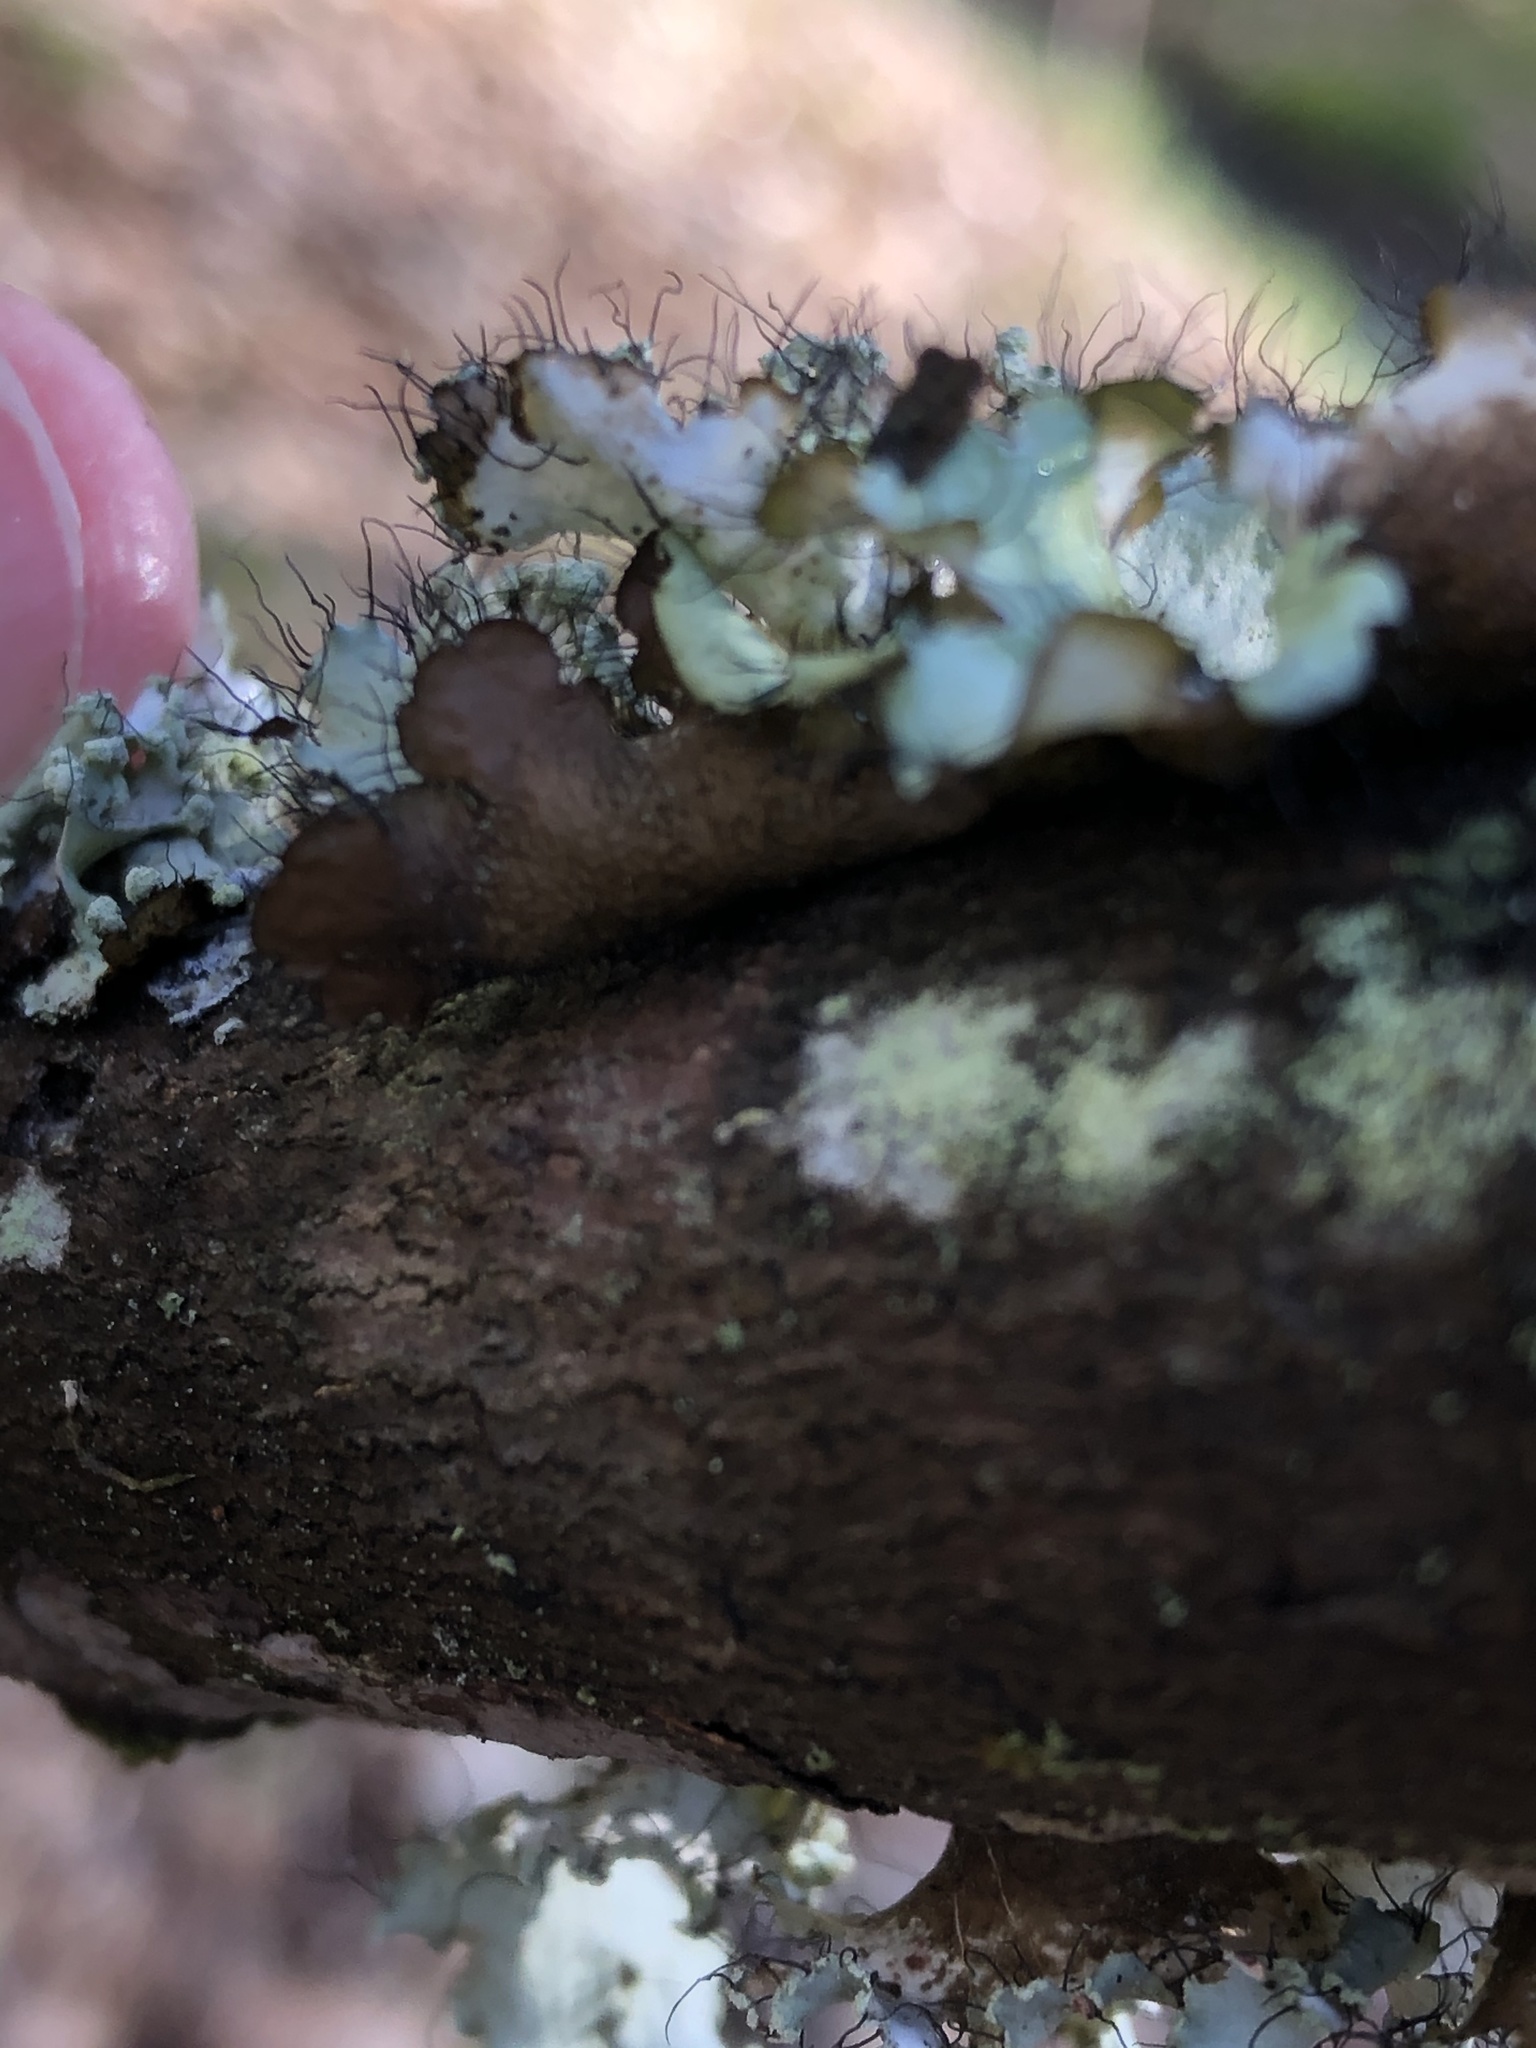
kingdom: Fungi
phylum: Ascomycota
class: Lecanoromycetes
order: Lecanorales
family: Parmeliaceae
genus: Parmotrema
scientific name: Parmotrema hypotropum
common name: Powdered ruffle lichen
